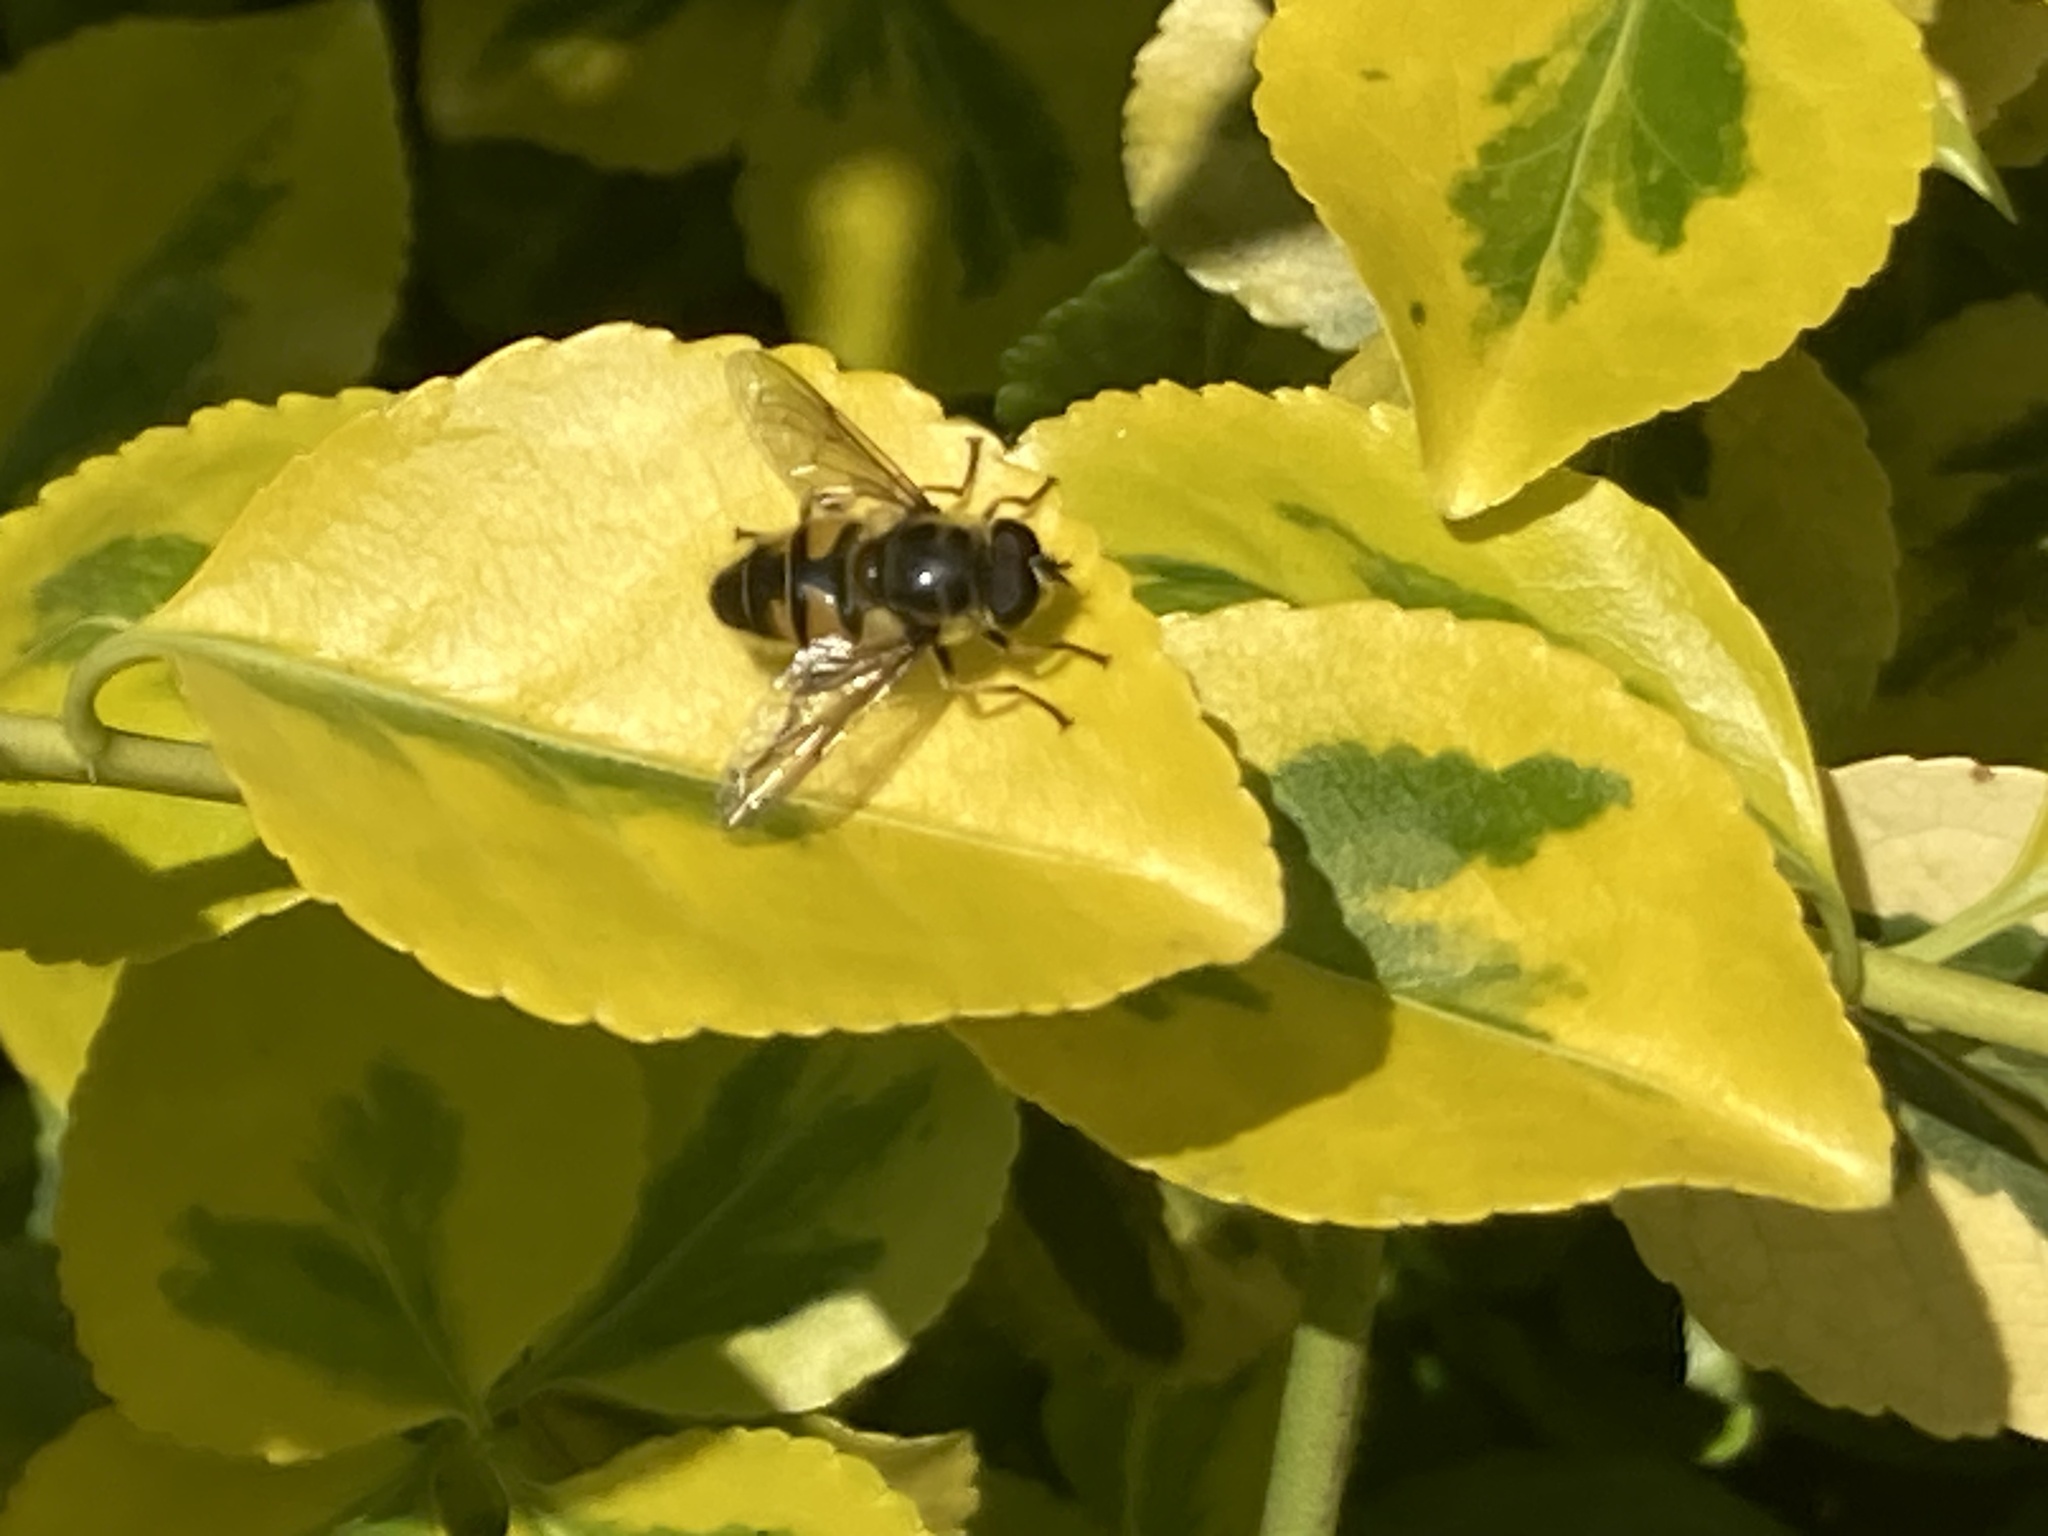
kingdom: Animalia
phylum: Arthropoda
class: Insecta
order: Diptera
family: Syrphidae
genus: Myathropa
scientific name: Myathropa florea
